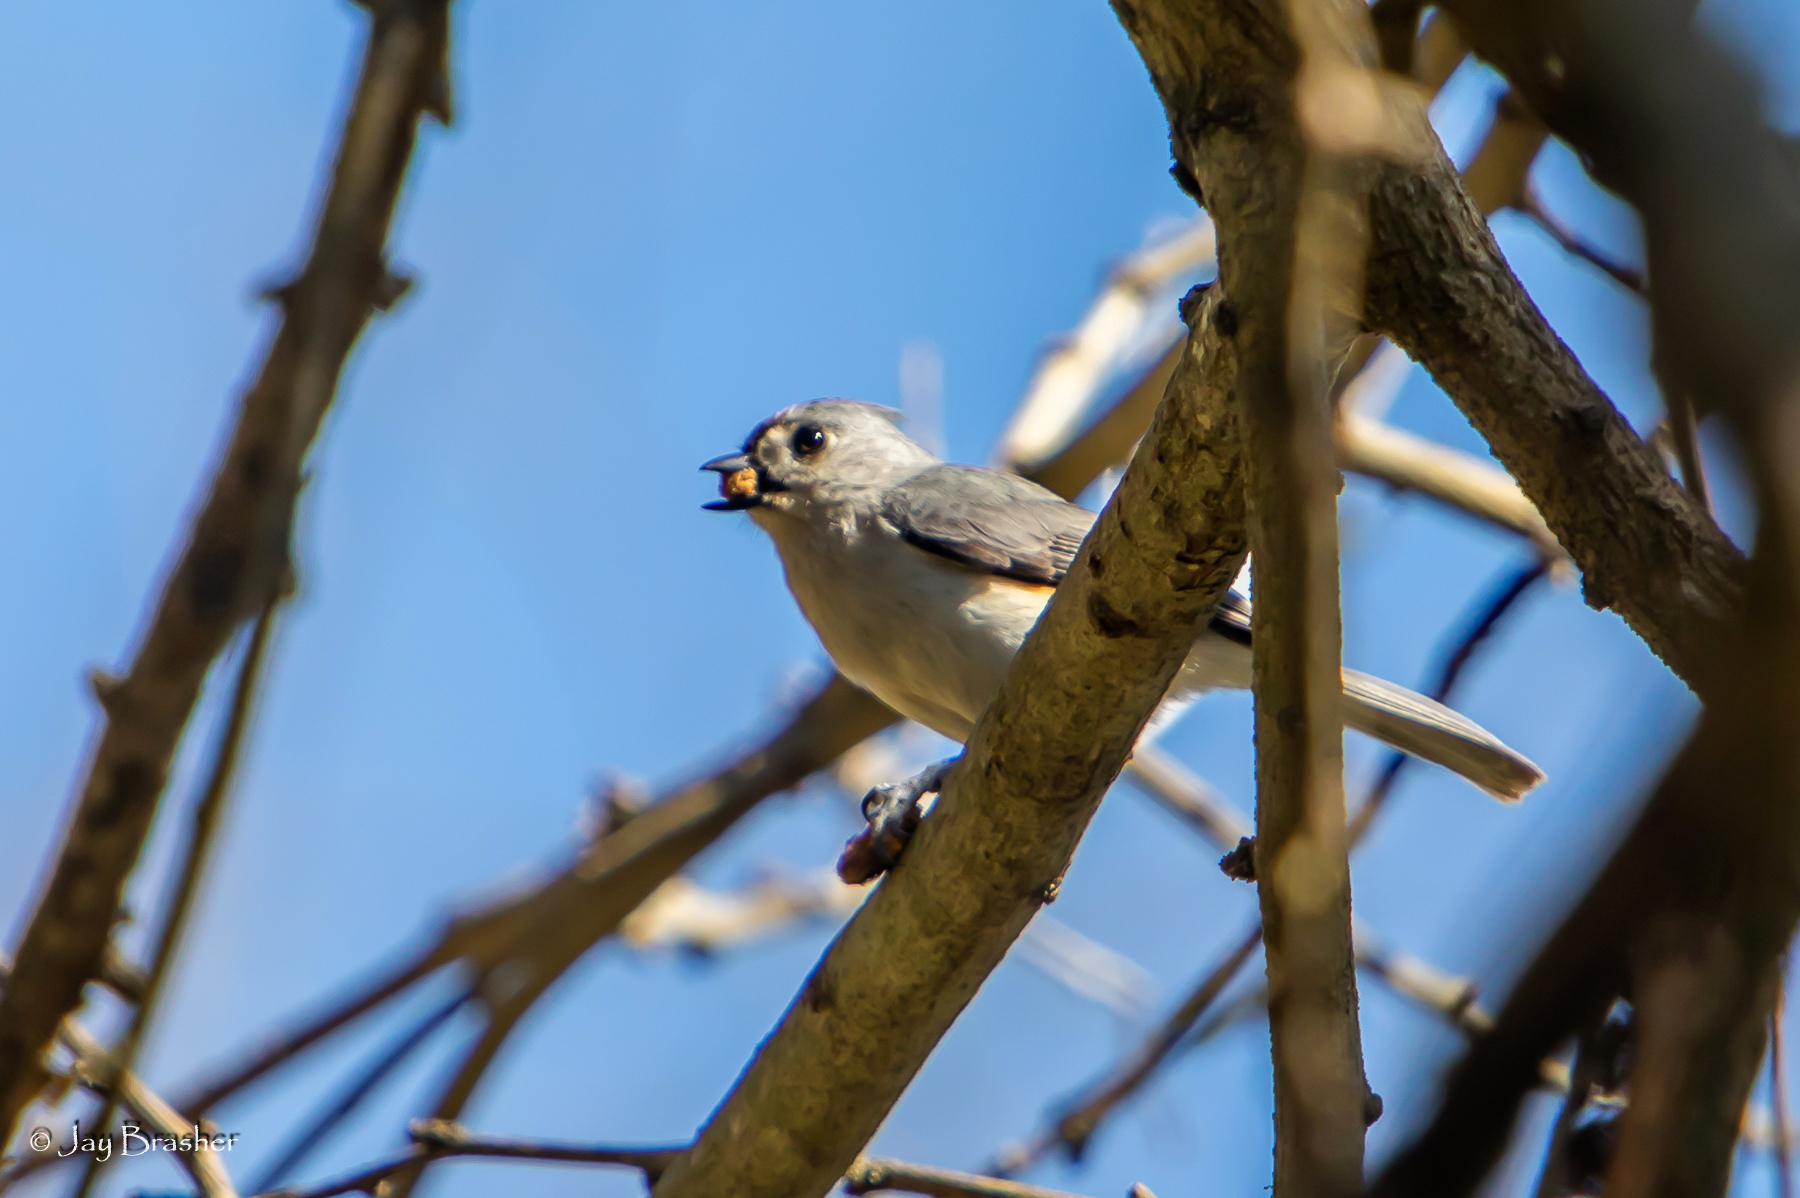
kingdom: Animalia
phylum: Chordata
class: Aves
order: Passeriformes
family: Paridae
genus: Baeolophus
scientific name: Baeolophus bicolor
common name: Tufted titmouse
